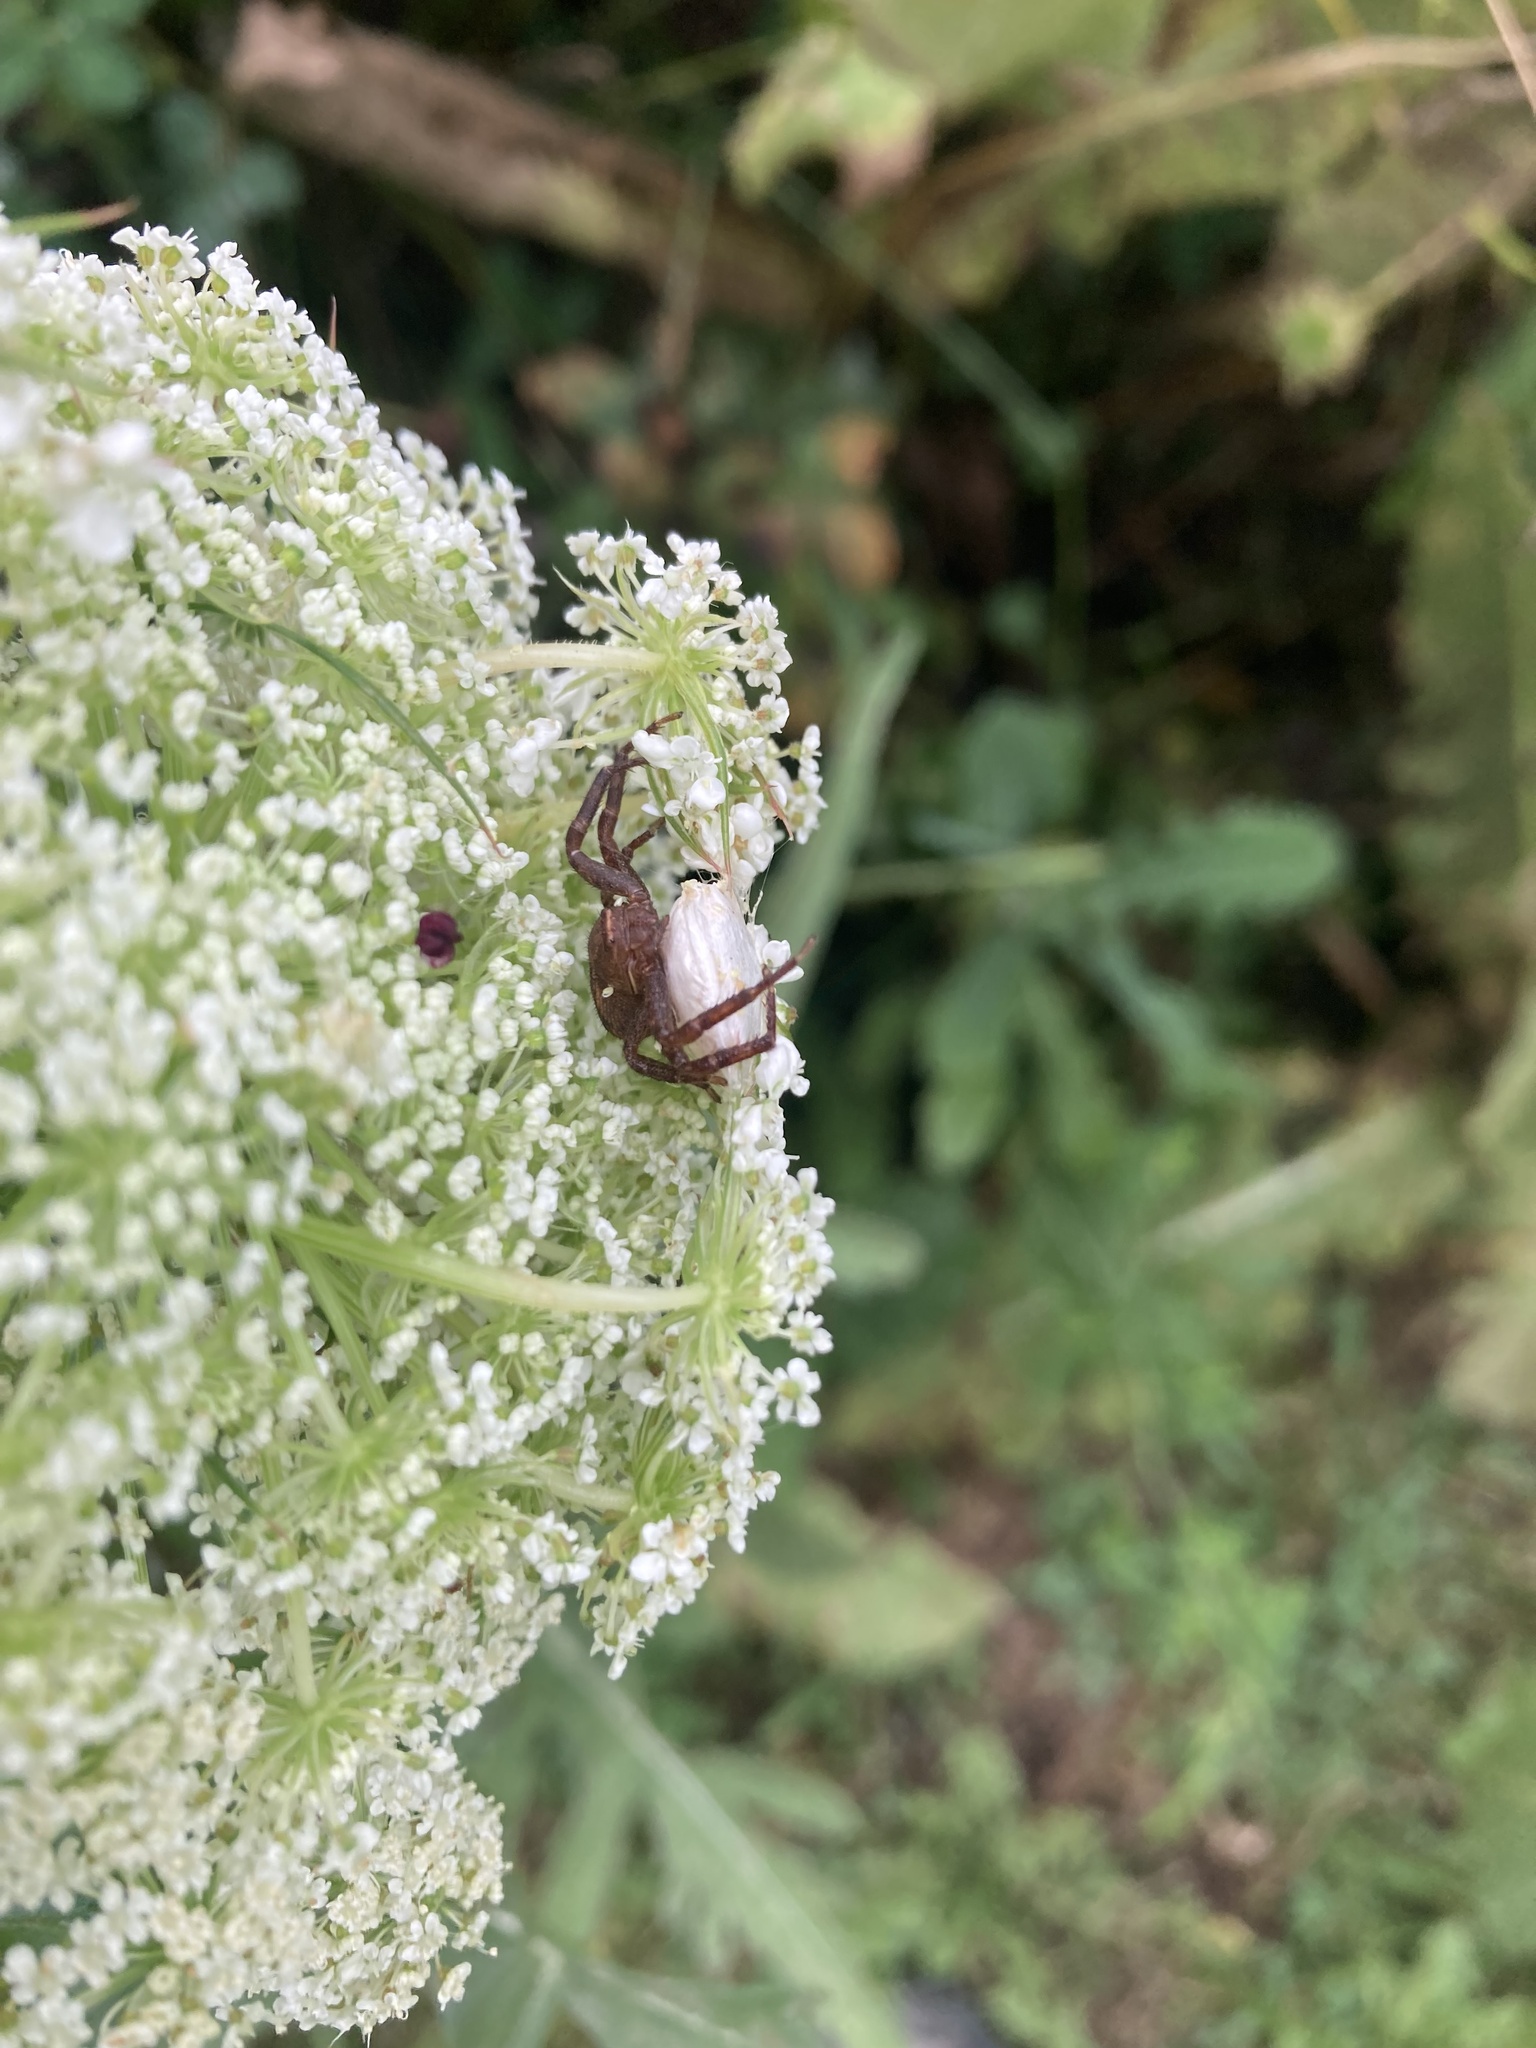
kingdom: Animalia
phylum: Arthropoda
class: Arachnida
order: Araneae
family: Thomisidae
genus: Xysticus
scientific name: Xysticus funestus
